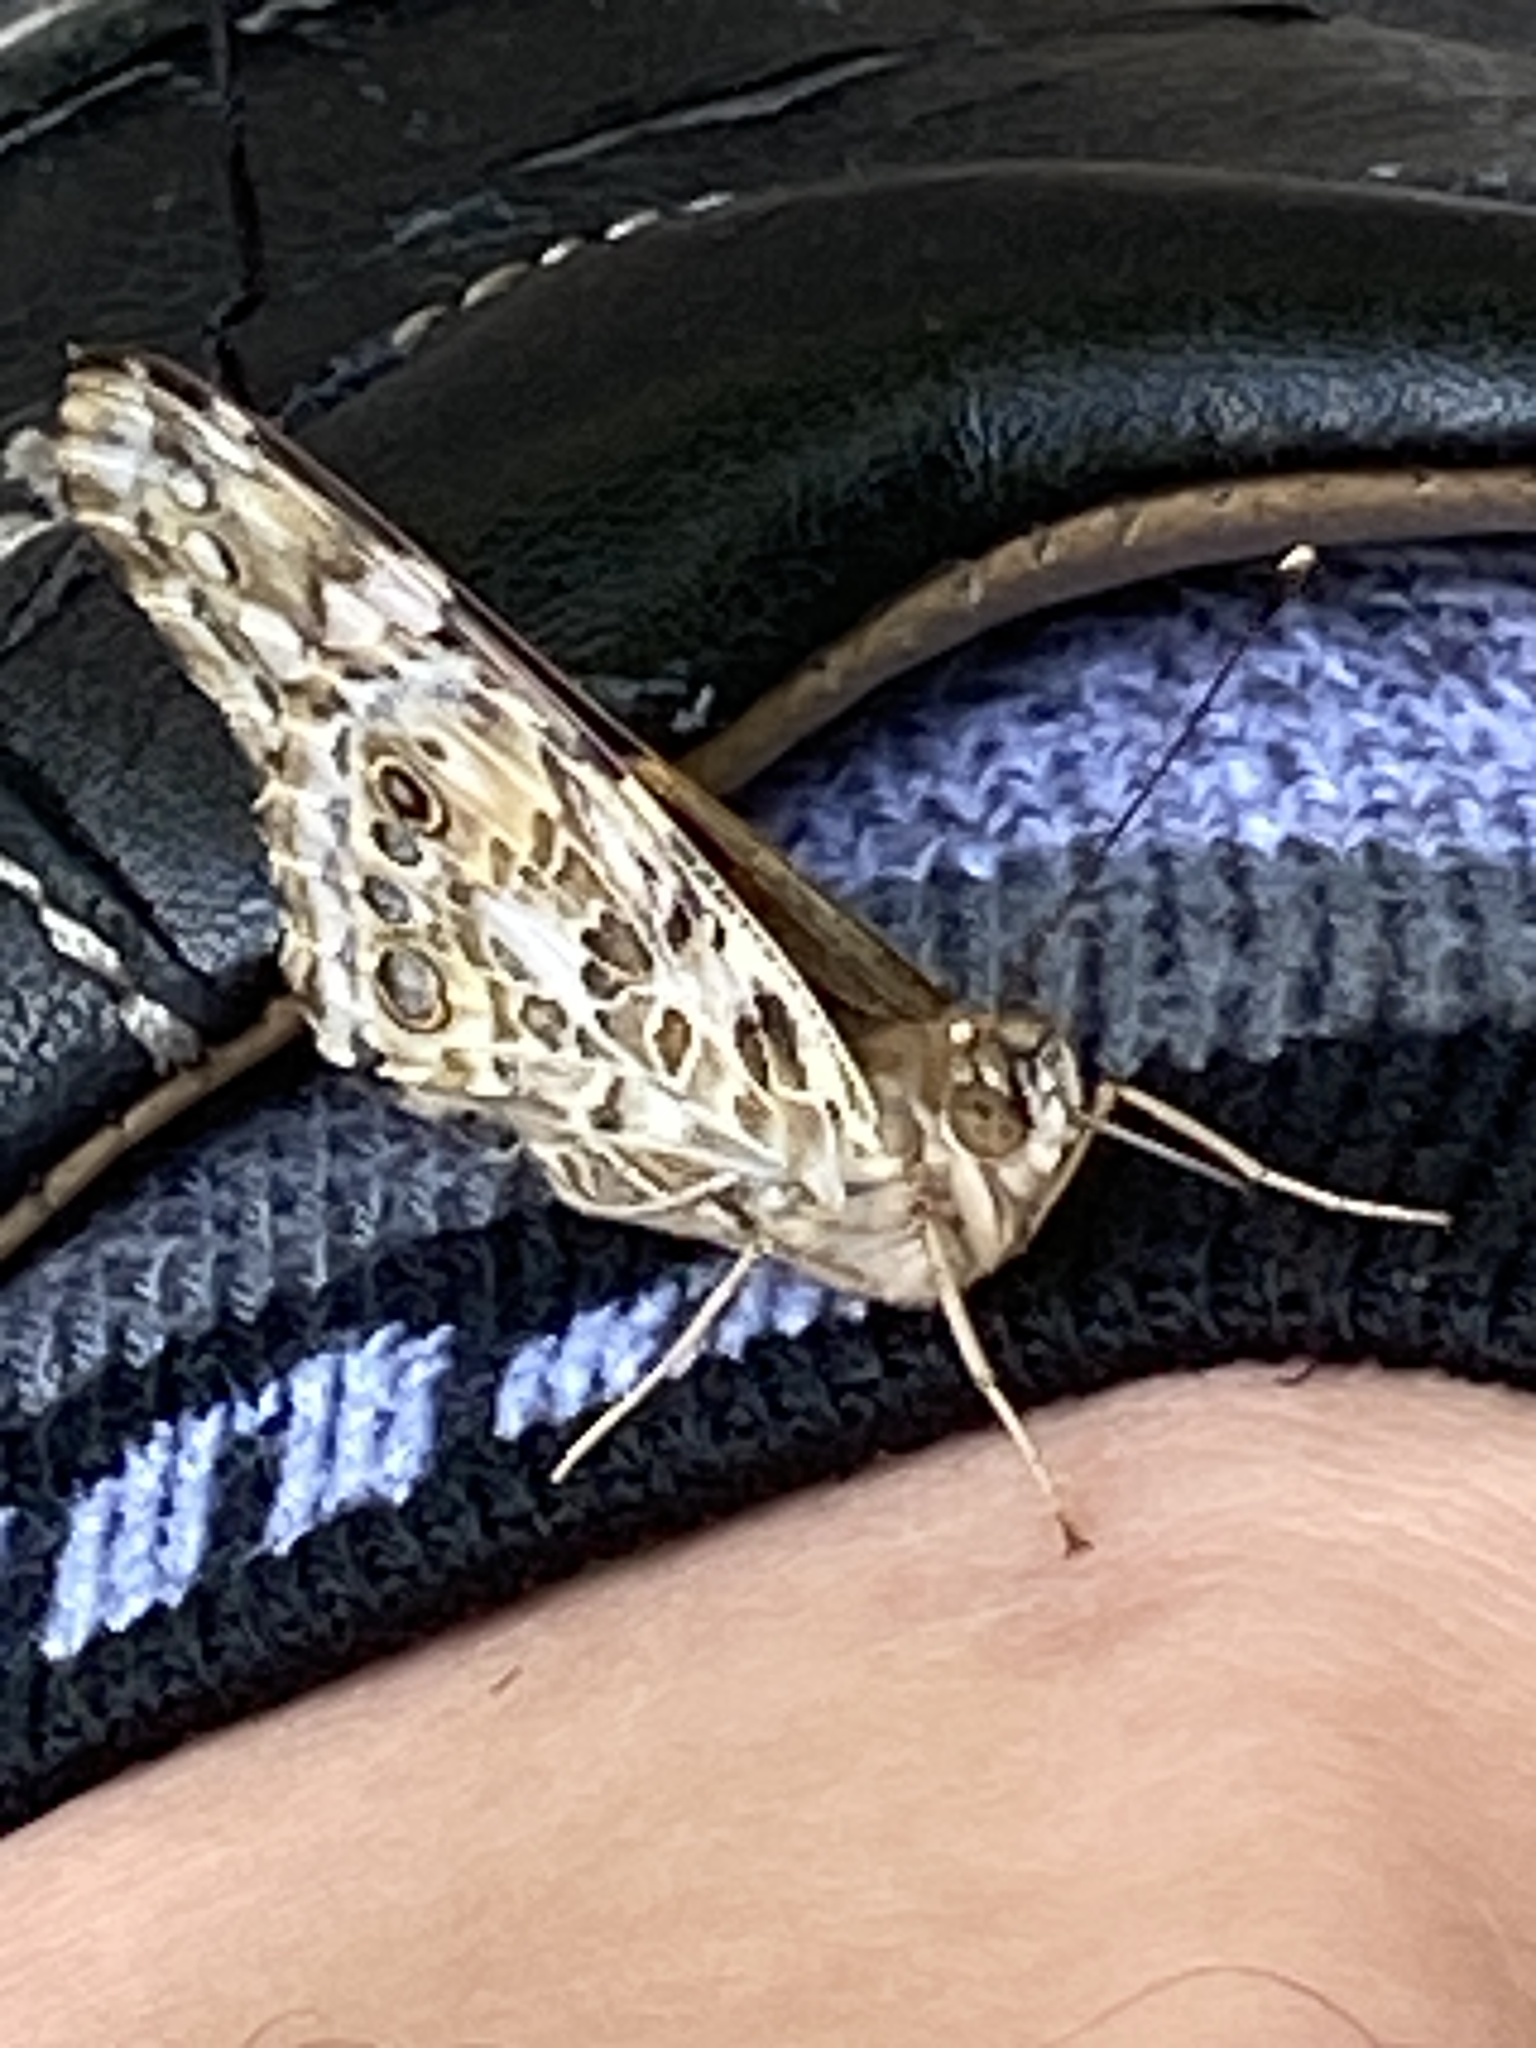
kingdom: Animalia
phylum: Arthropoda
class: Insecta
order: Lepidoptera
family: Nymphalidae
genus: Vanessa
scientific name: Vanessa cardui
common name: Painted lady
